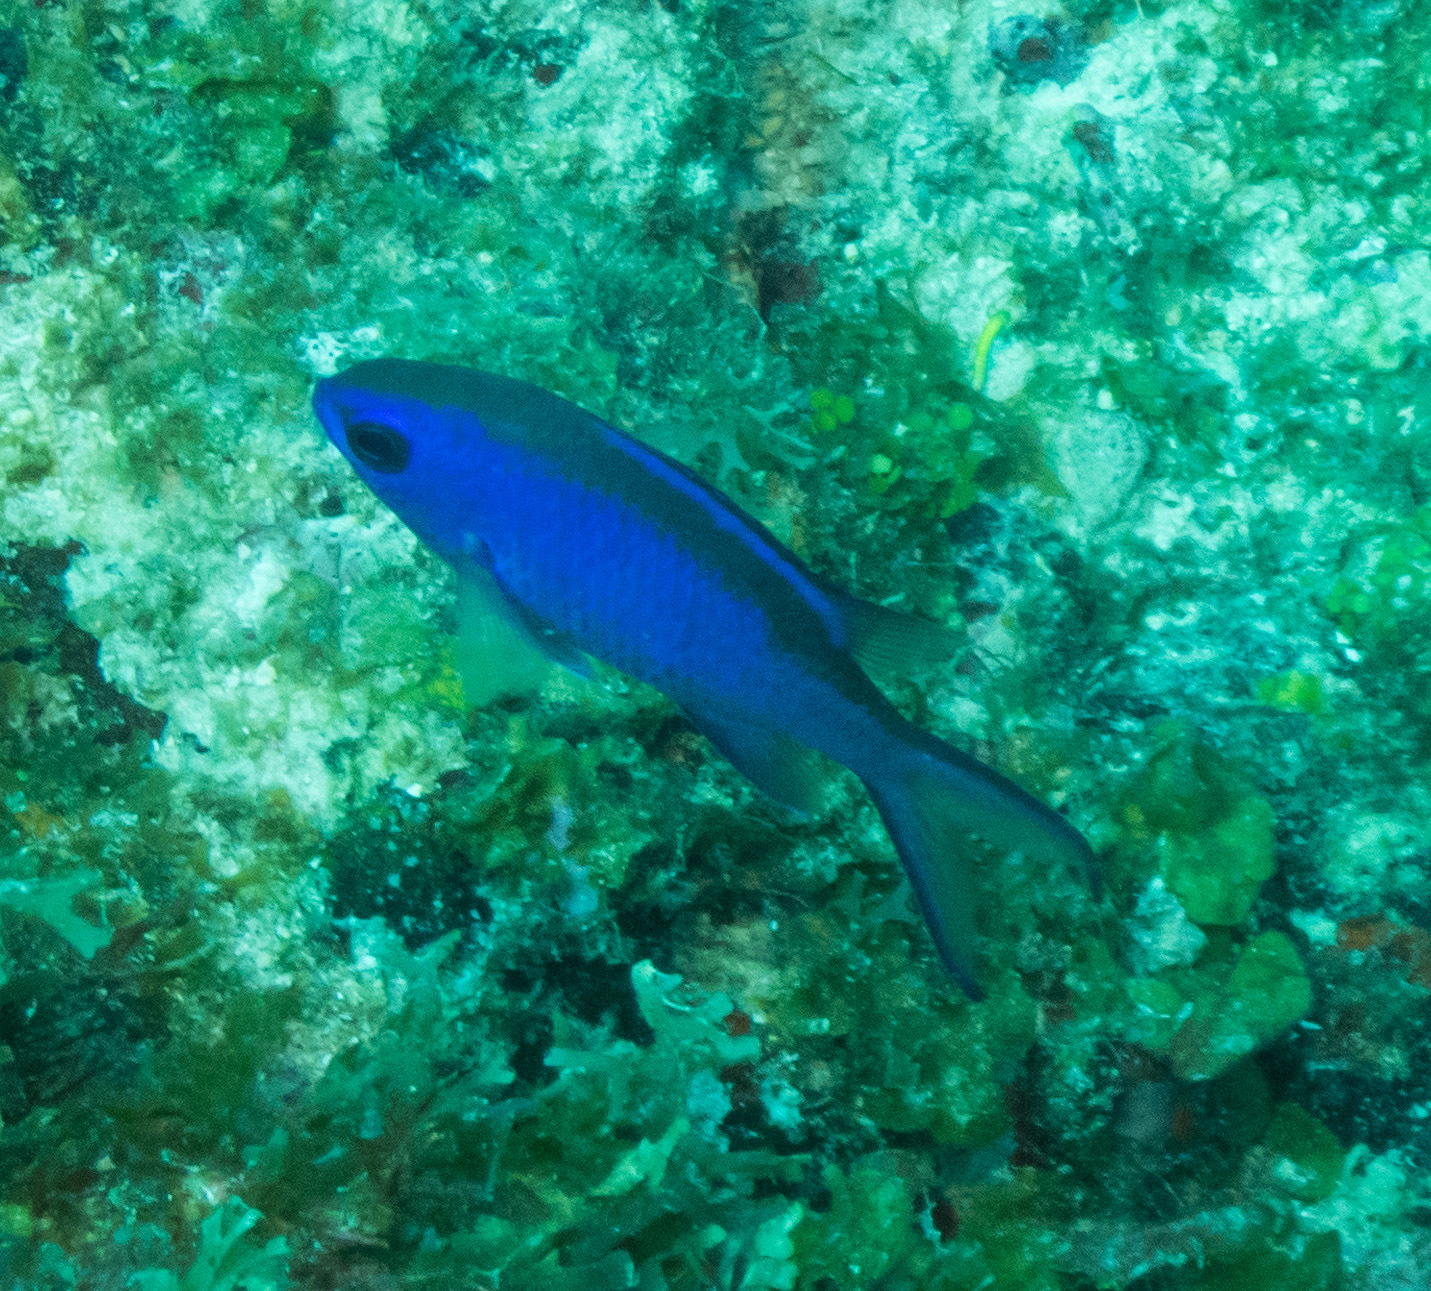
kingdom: Animalia
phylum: Chordata
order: Perciformes
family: Pomacentridae
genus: Chromis
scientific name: Chromis cyanea
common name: Blue chromis
